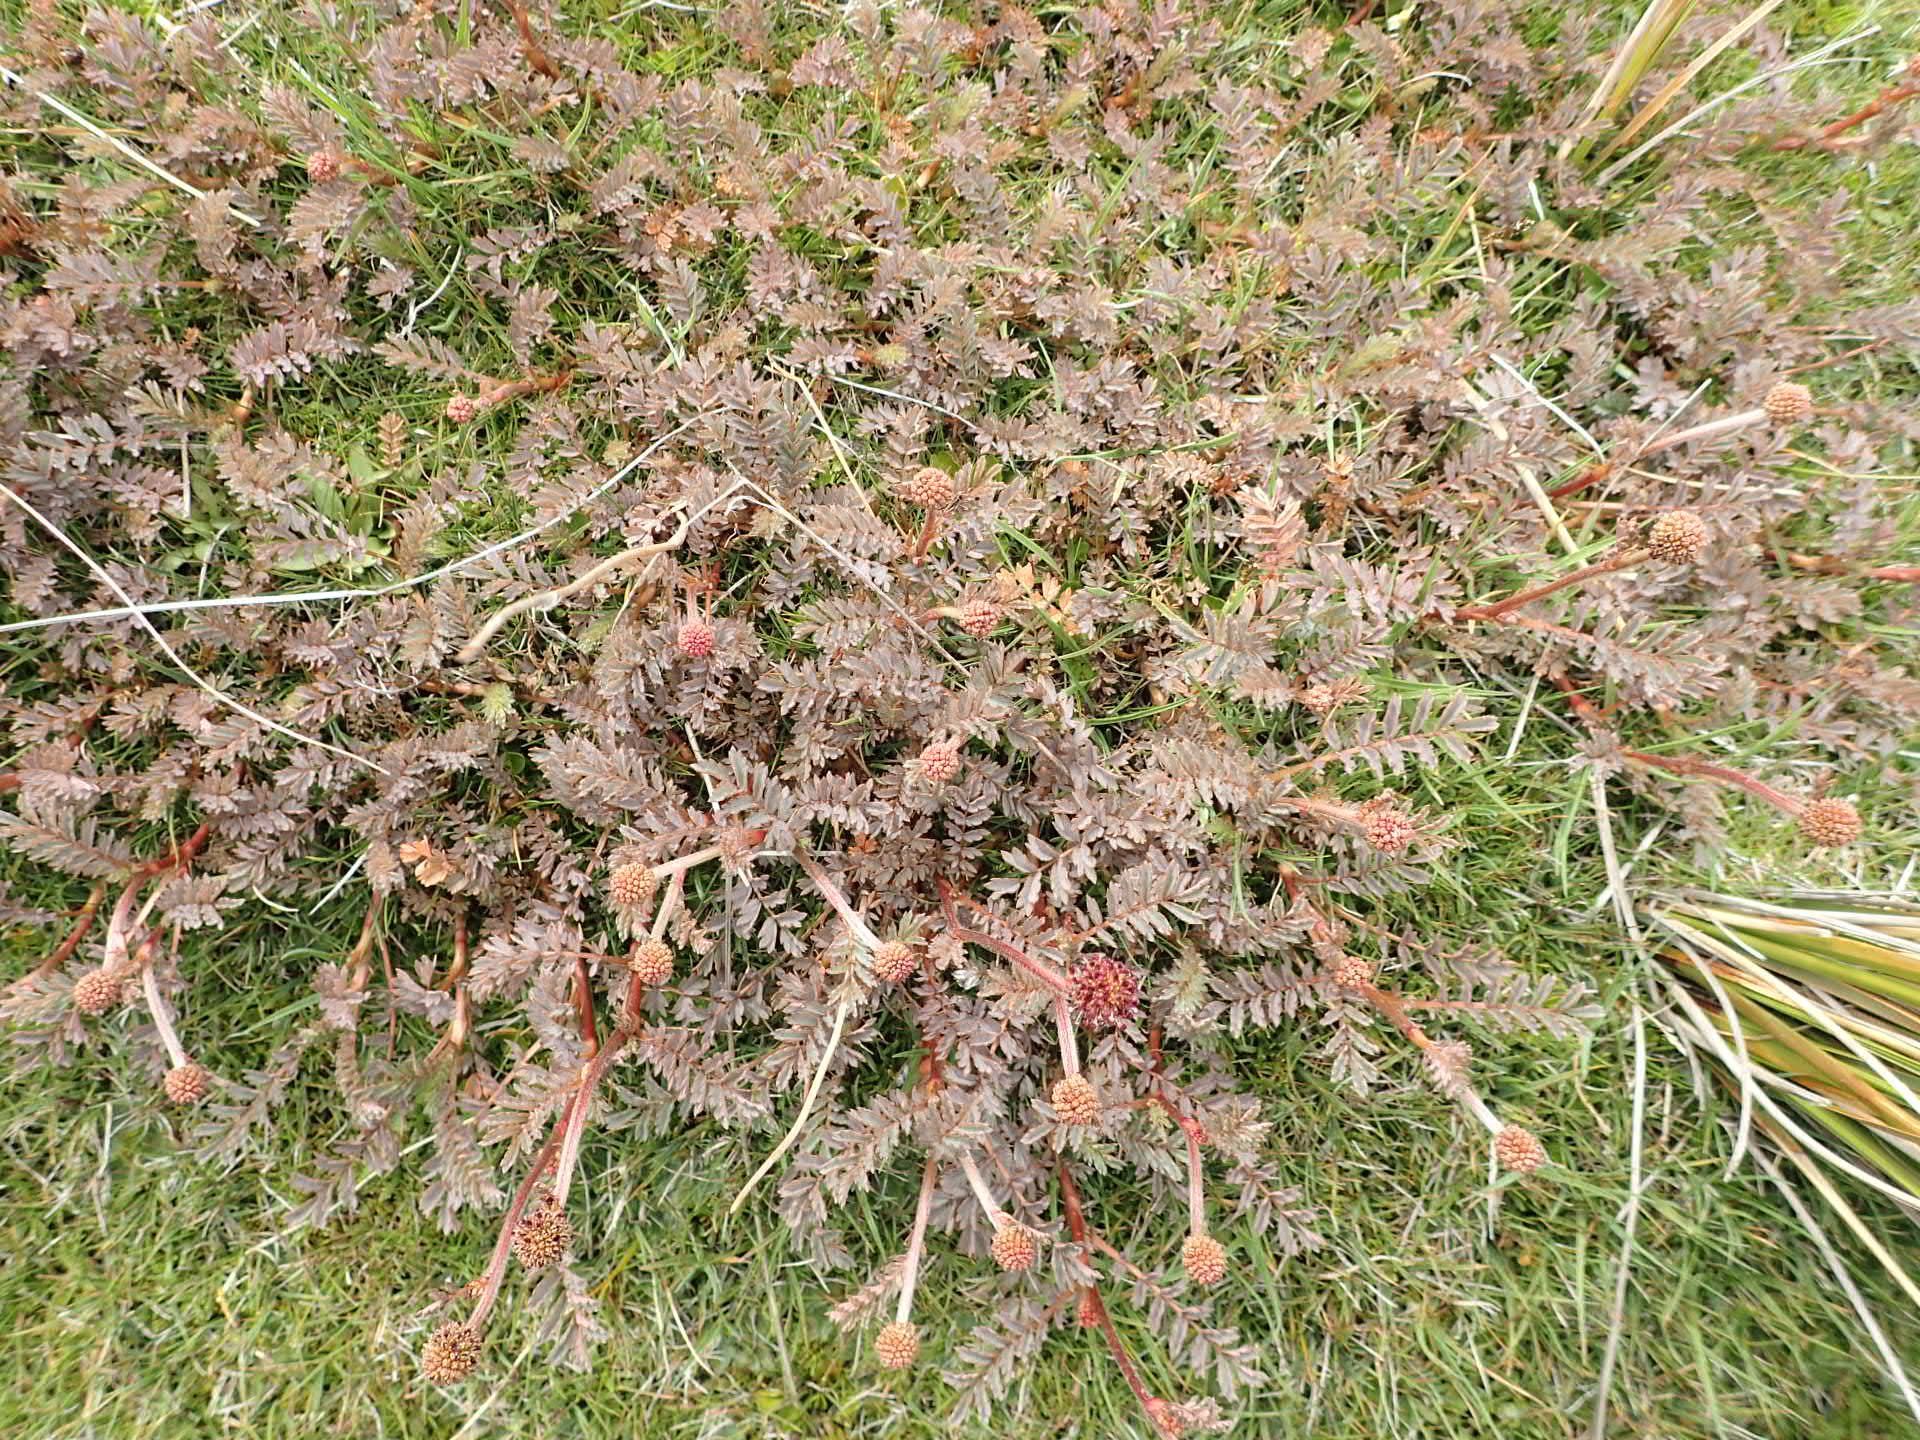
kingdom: Plantae
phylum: Tracheophyta
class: Magnoliopsida
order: Rosales
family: Rosaceae
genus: Acaena
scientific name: Acaena profundeincisa
